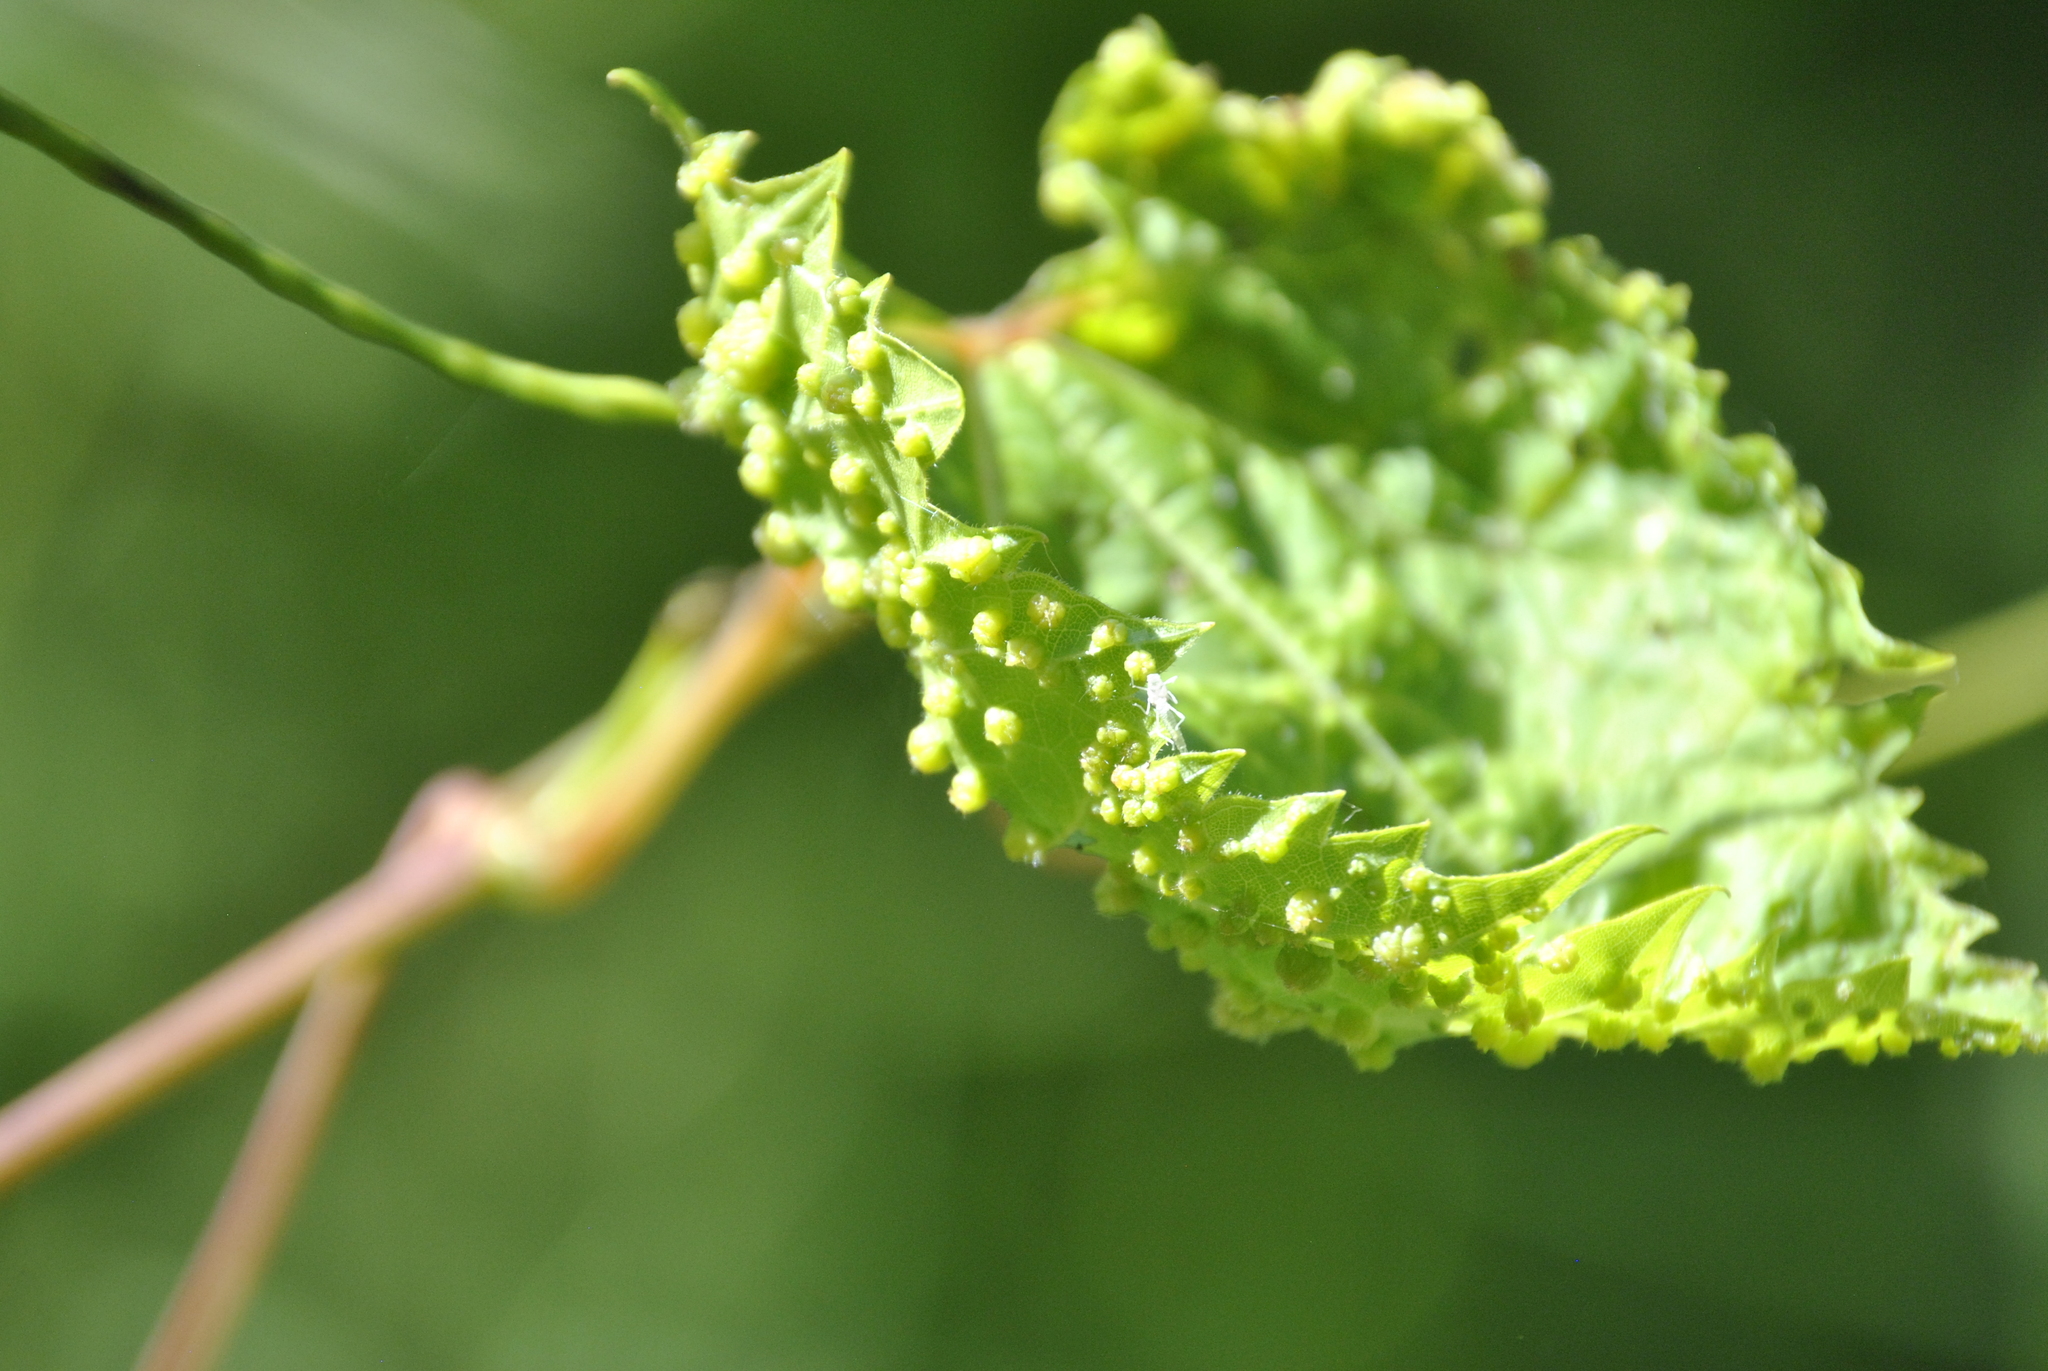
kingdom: Animalia
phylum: Arthropoda
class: Insecta
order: Hemiptera
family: Phylloxeridae
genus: Daktulosphaira
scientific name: Daktulosphaira vitifoliae
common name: Grape phylloxera
